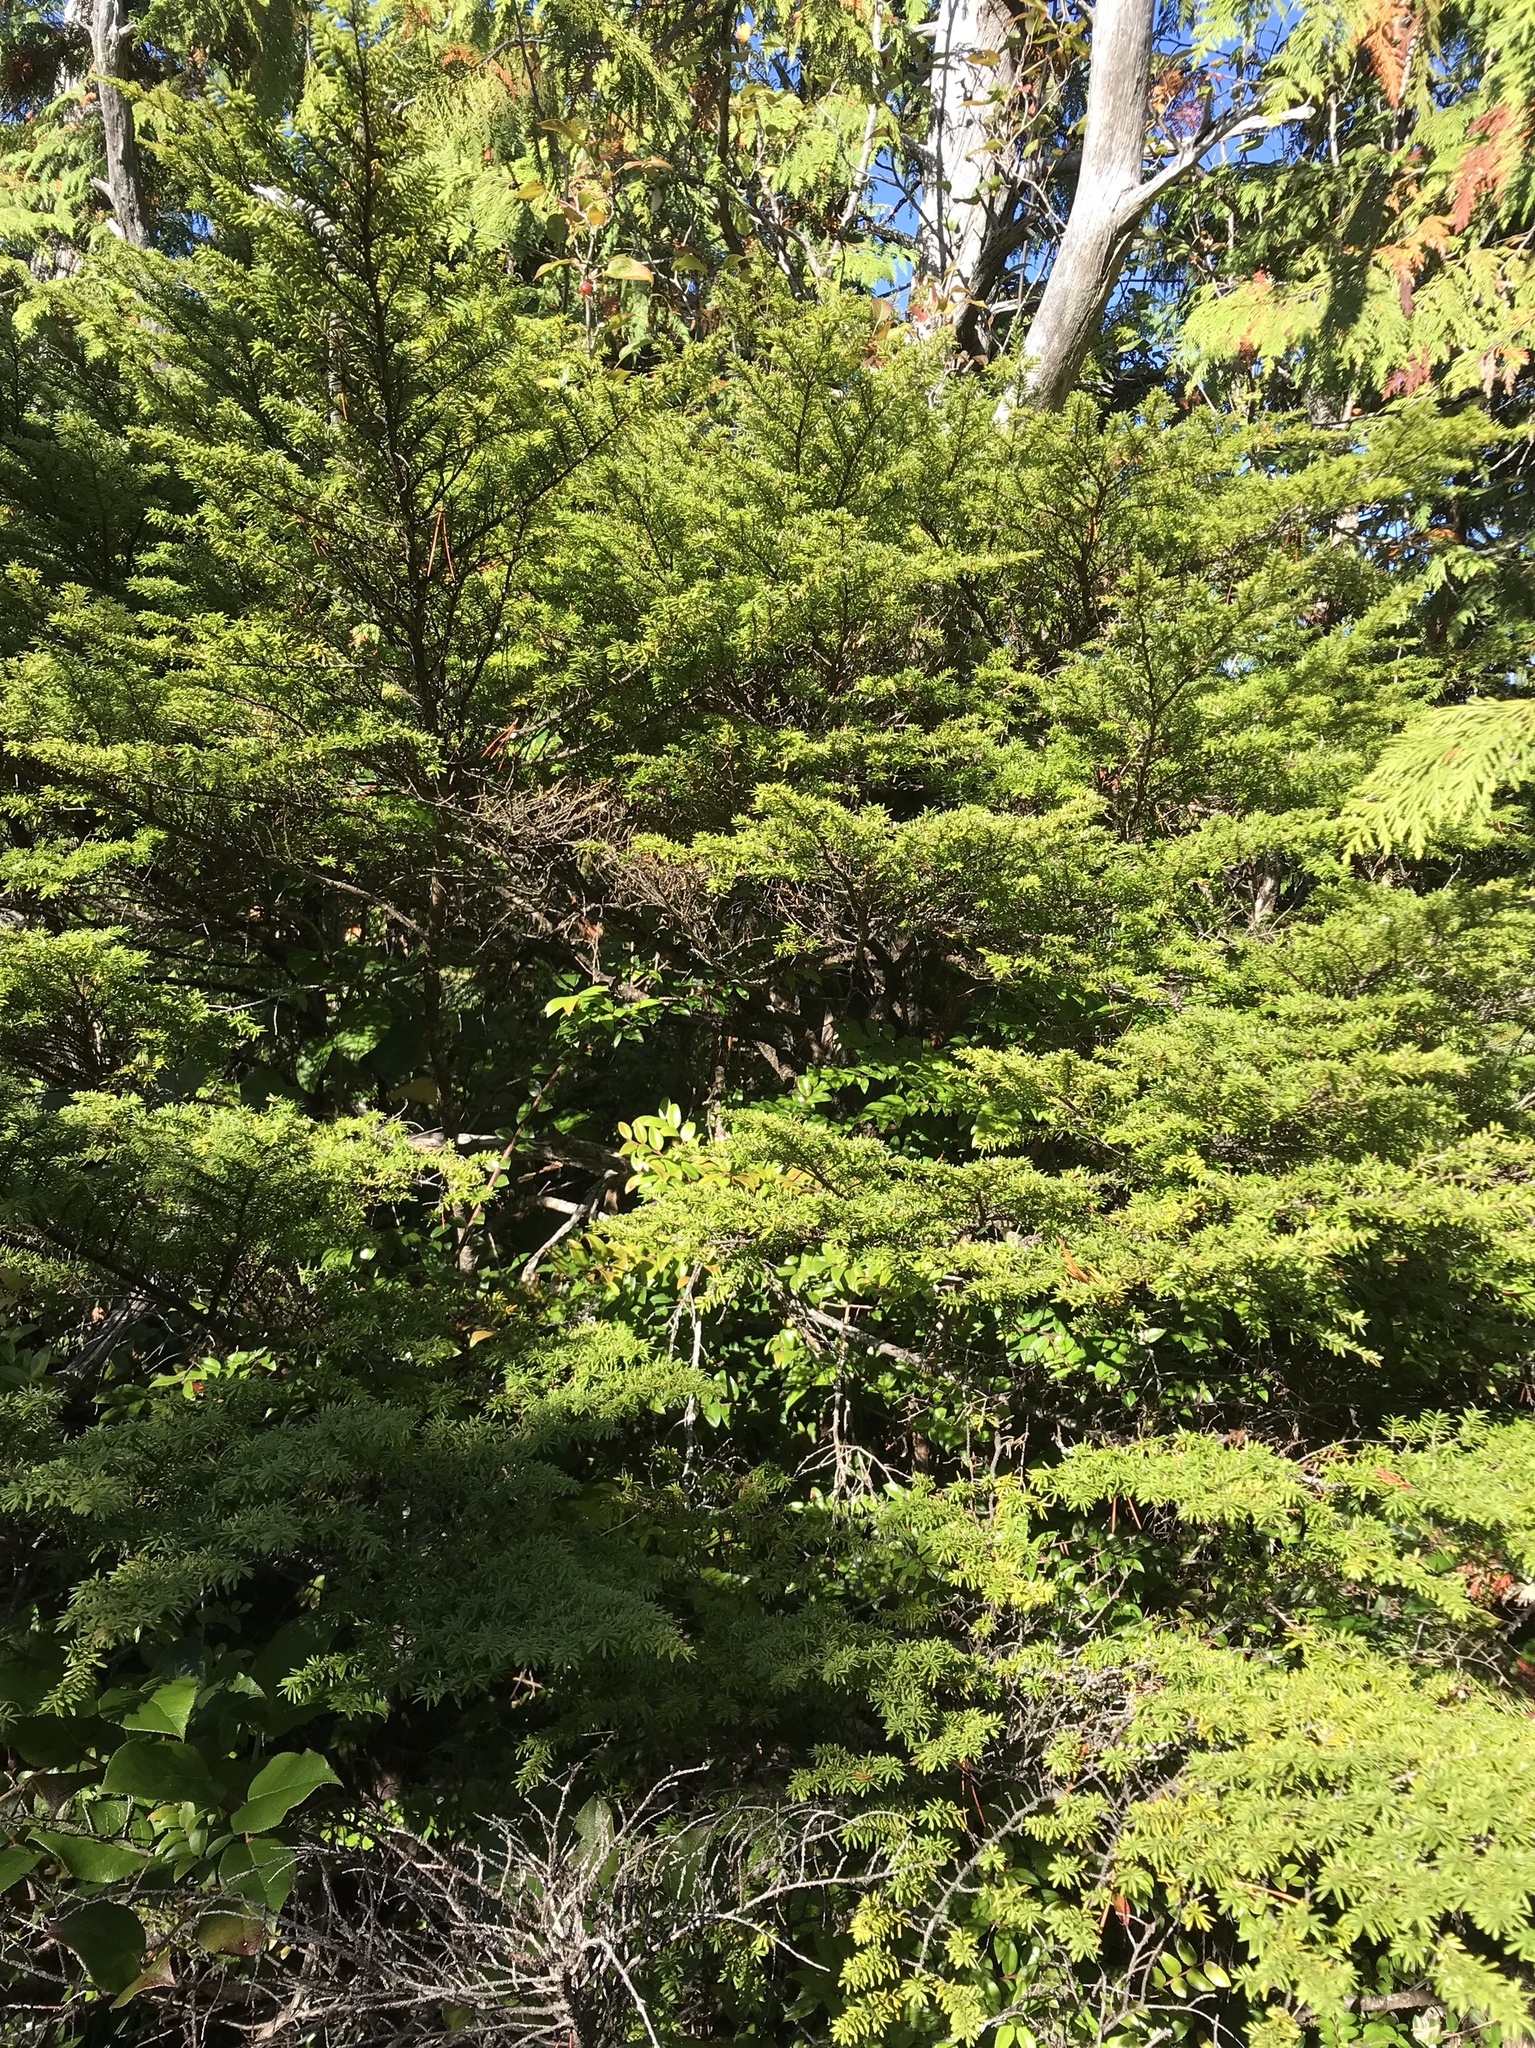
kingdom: Plantae
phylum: Tracheophyta
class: Pinopsida
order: Pinales
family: Pinaceae
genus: Tsuga
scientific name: Tsuga heterophylla
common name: Western hemlock
